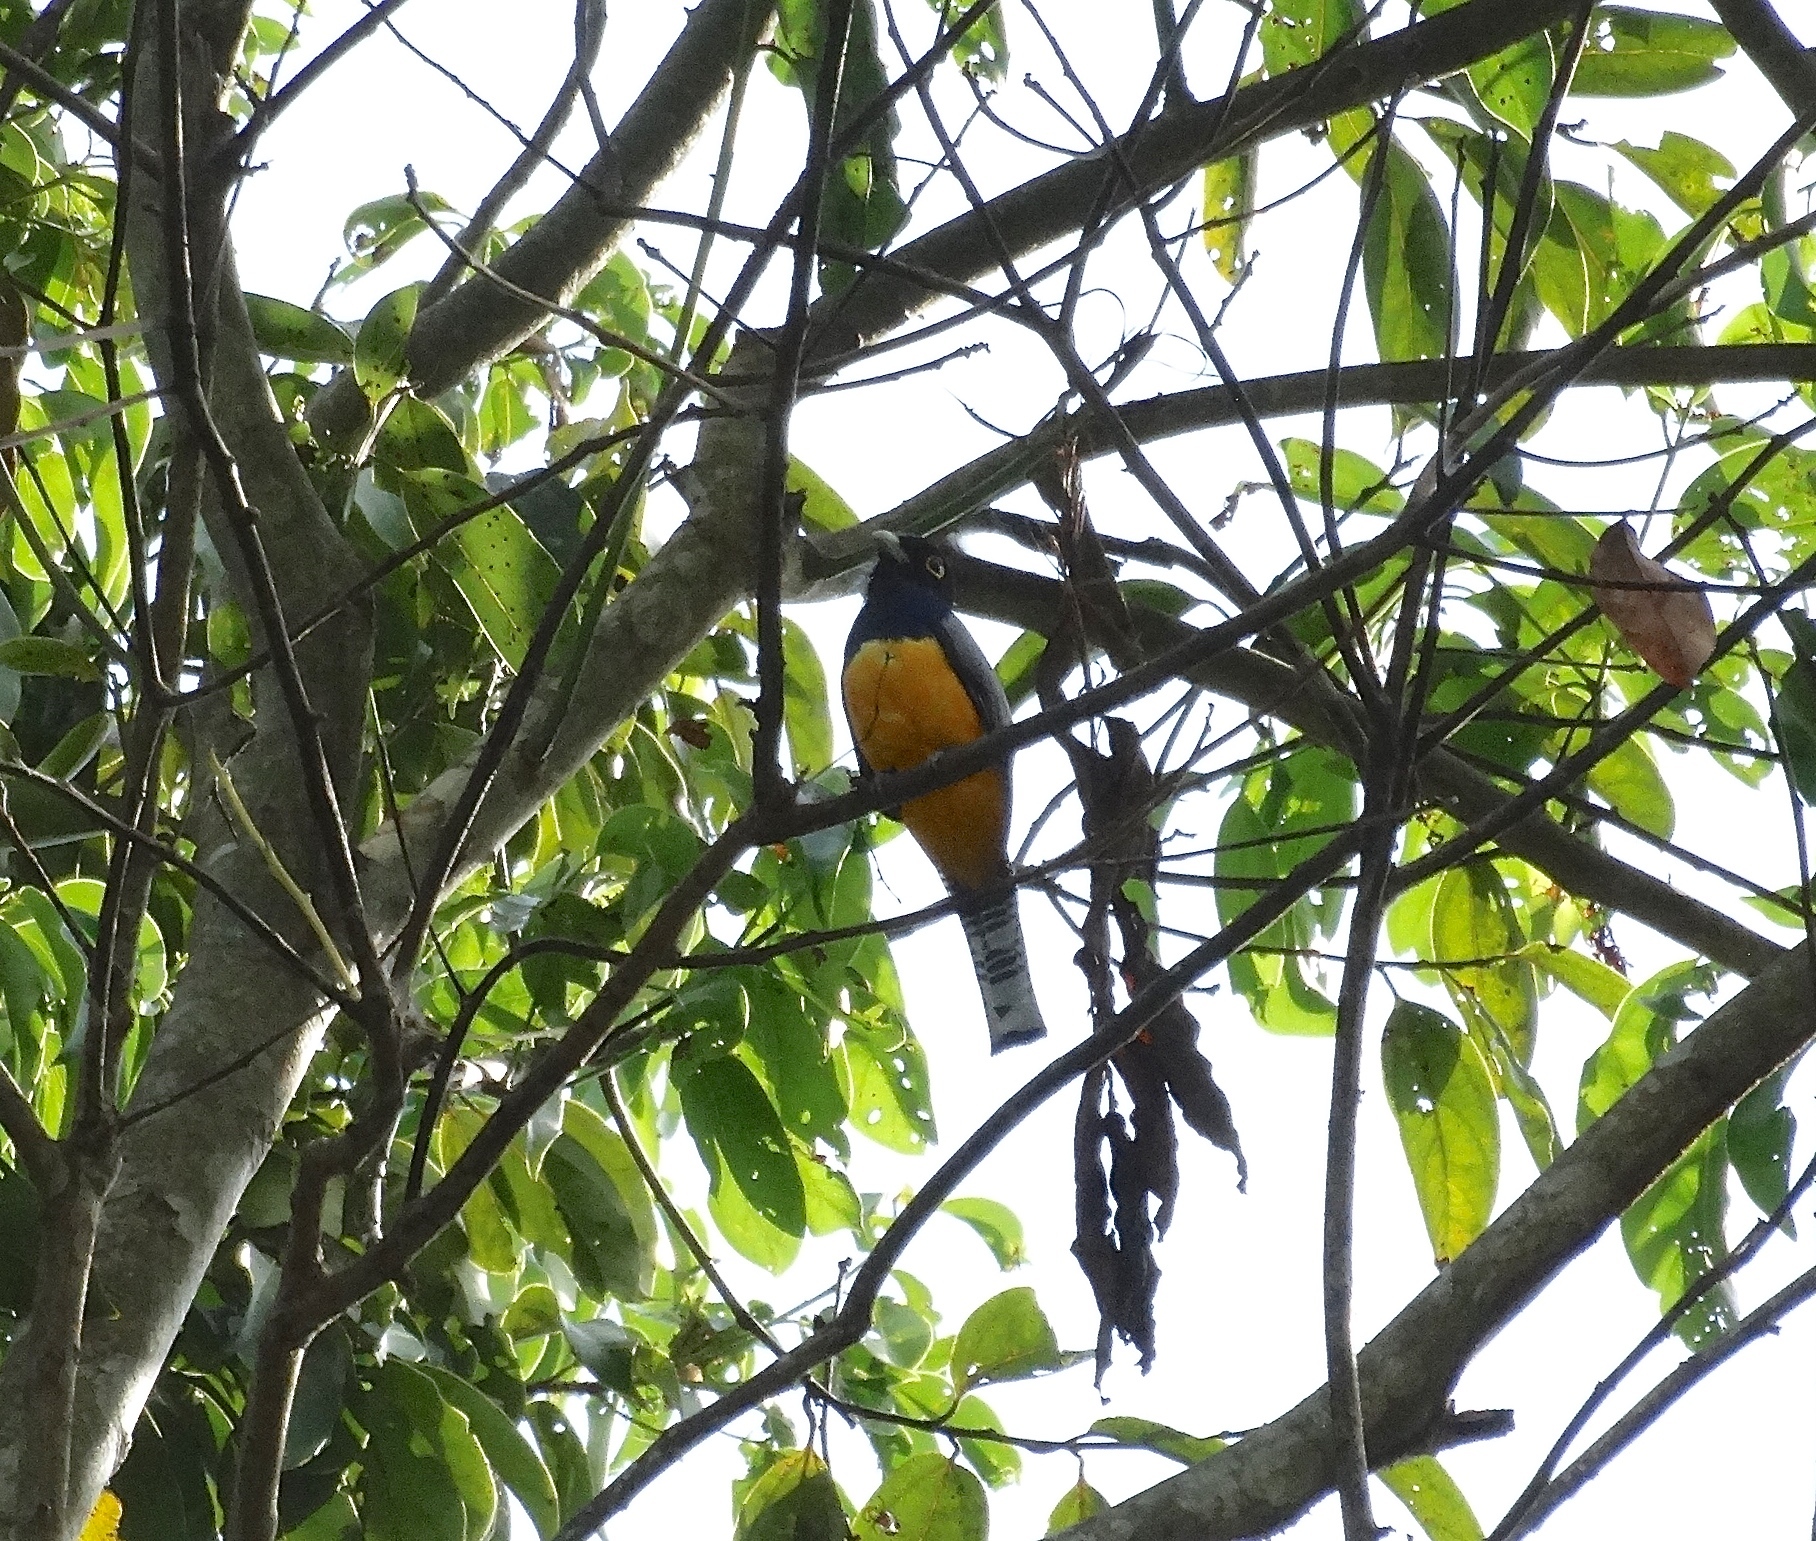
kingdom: Animalia
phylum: Chordata
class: Aves
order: Trogoniformes
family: Trogonidae
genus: Trogon
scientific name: Trogon caligatus
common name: Gartered trogon
